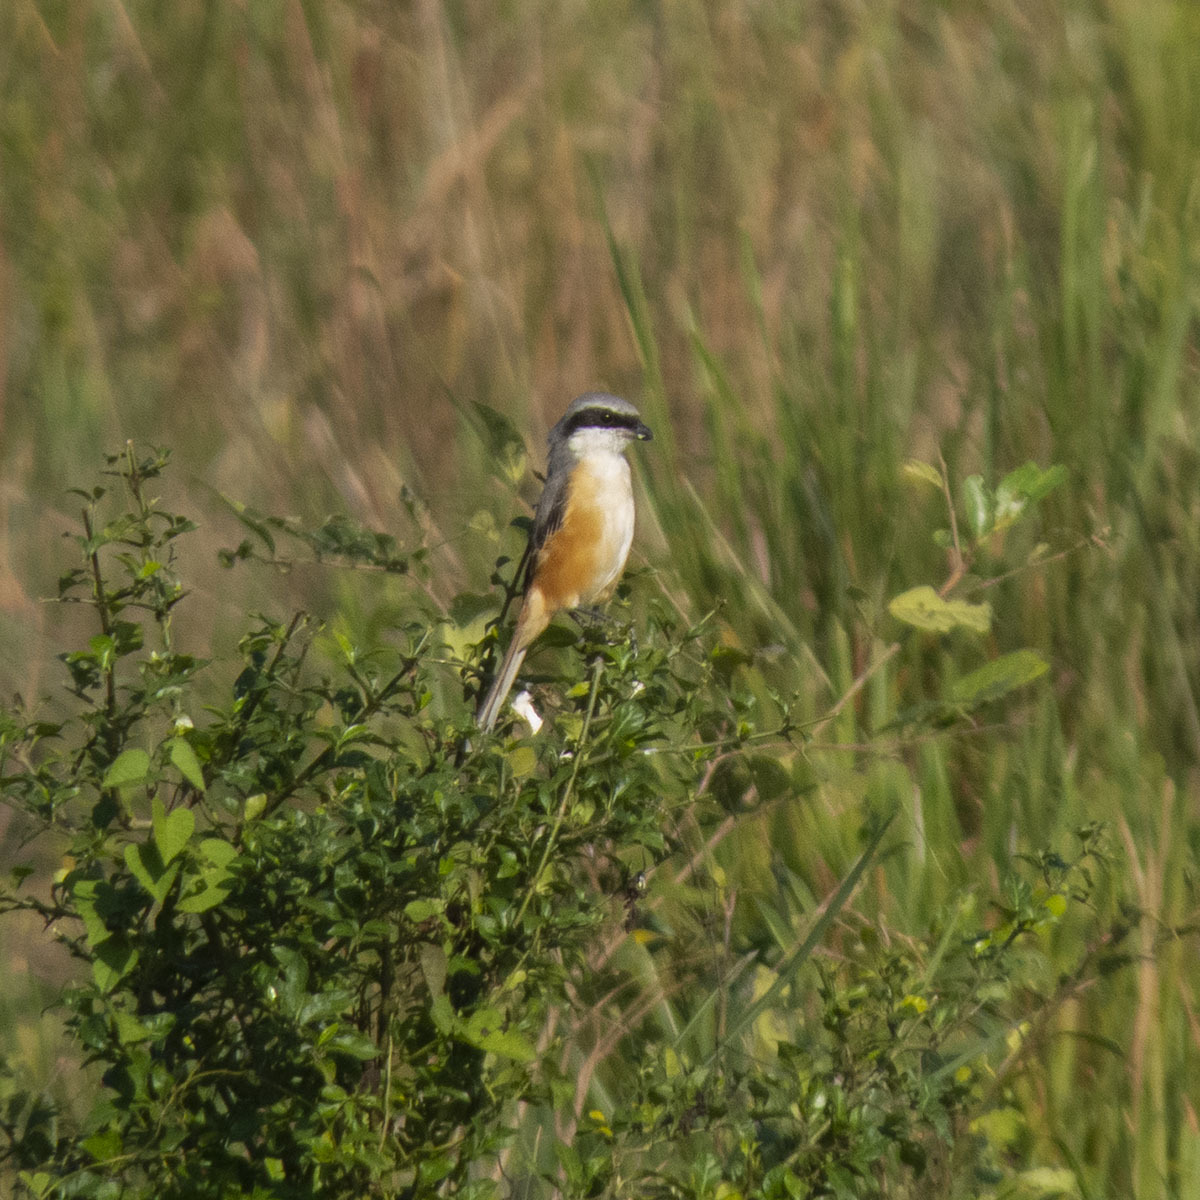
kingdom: Animalia
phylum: Chordata
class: Aves
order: Passeriformes
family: Laniidae
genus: Lanius
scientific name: Lanius tephronotus
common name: Grey-backed shrike
